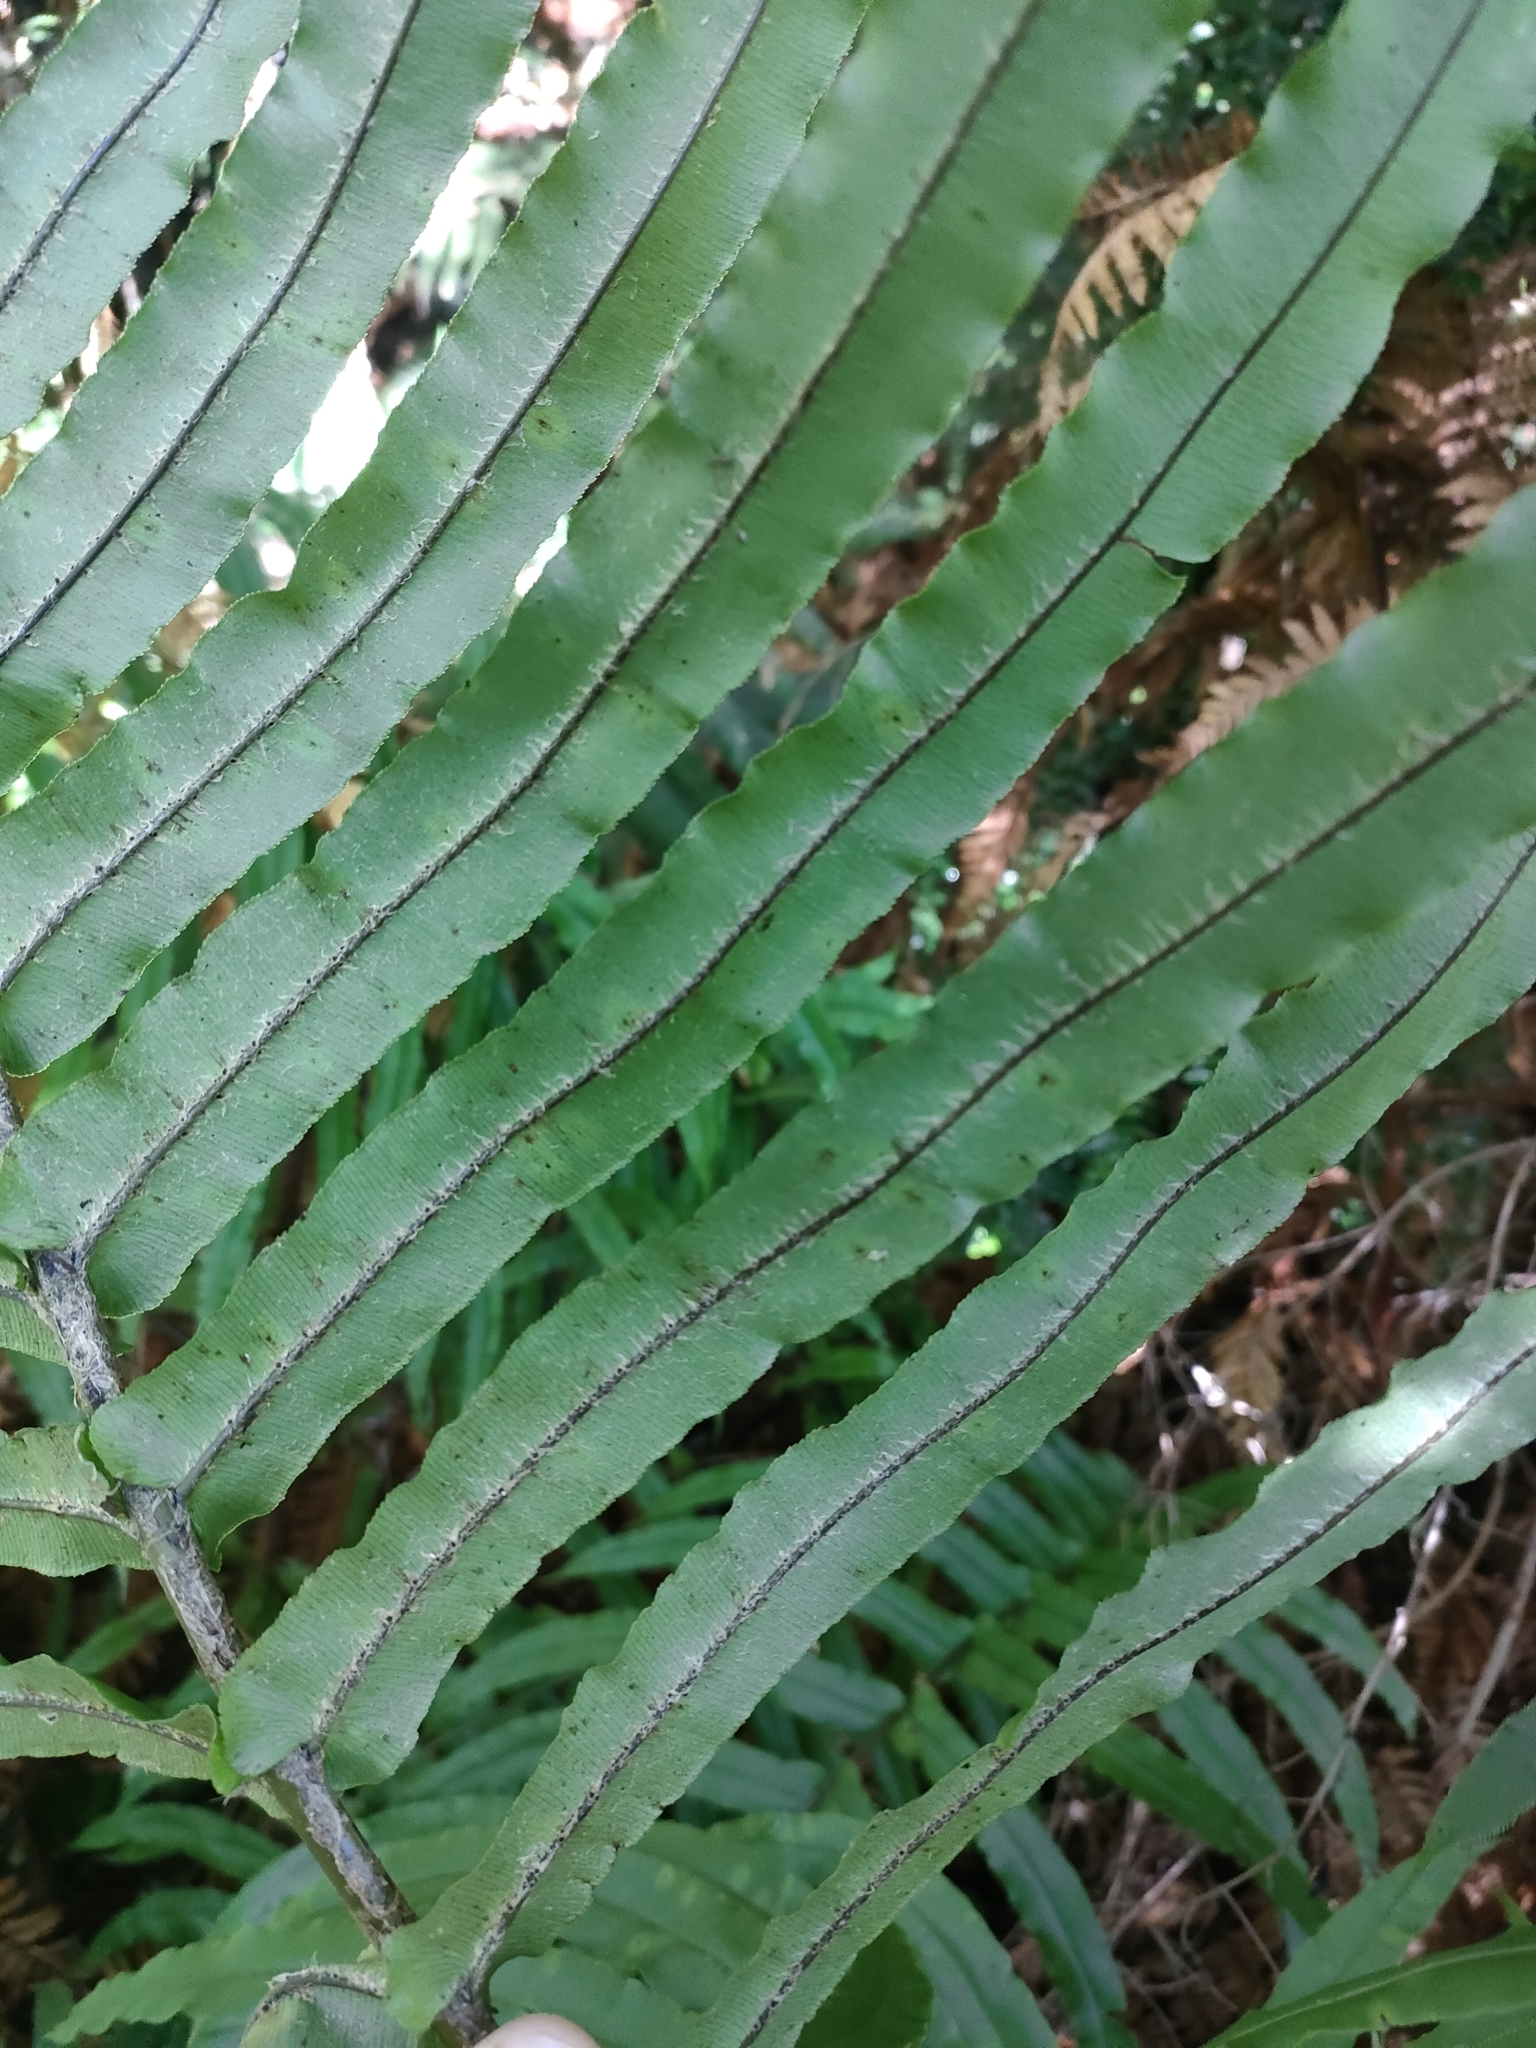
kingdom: Plantae
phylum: Tracheophyta
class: Polypodiopsida
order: Polypodiales
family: Blechnaceae
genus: Parablechnum
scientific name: Parablechnum novae-zelandiae
